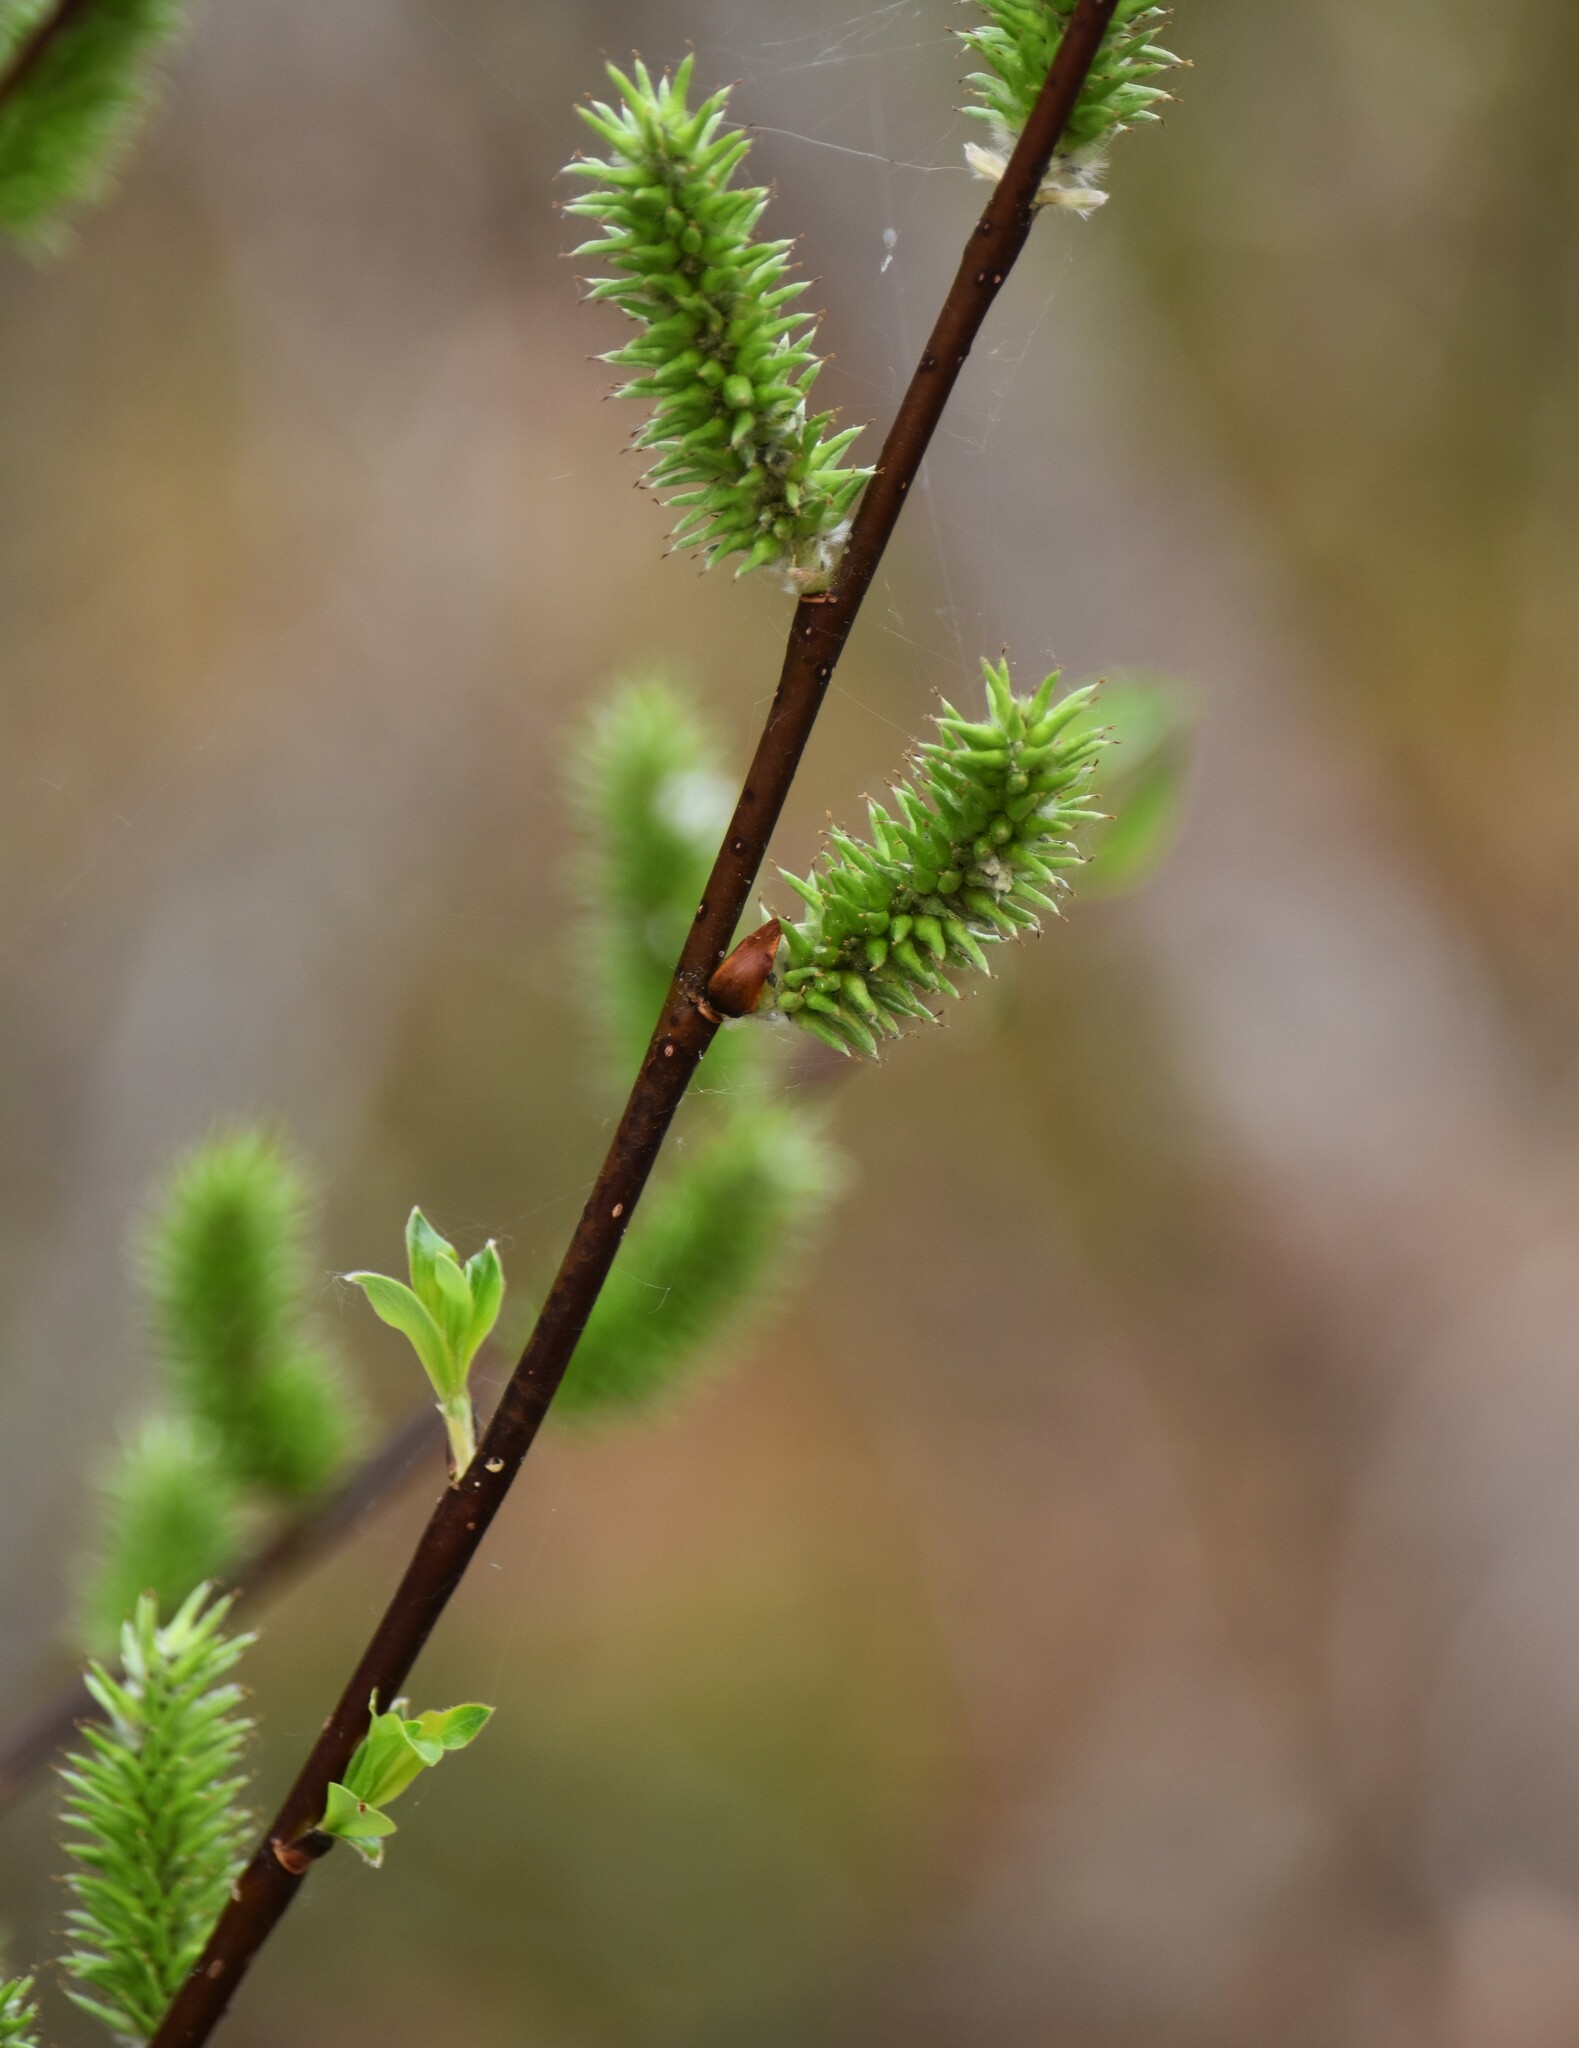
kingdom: Plantae
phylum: Tracheophyta
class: Magnoliopsida
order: Malpighiales
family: Salicaceae
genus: Salix
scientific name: Salix planifolia
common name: Mountain willow
